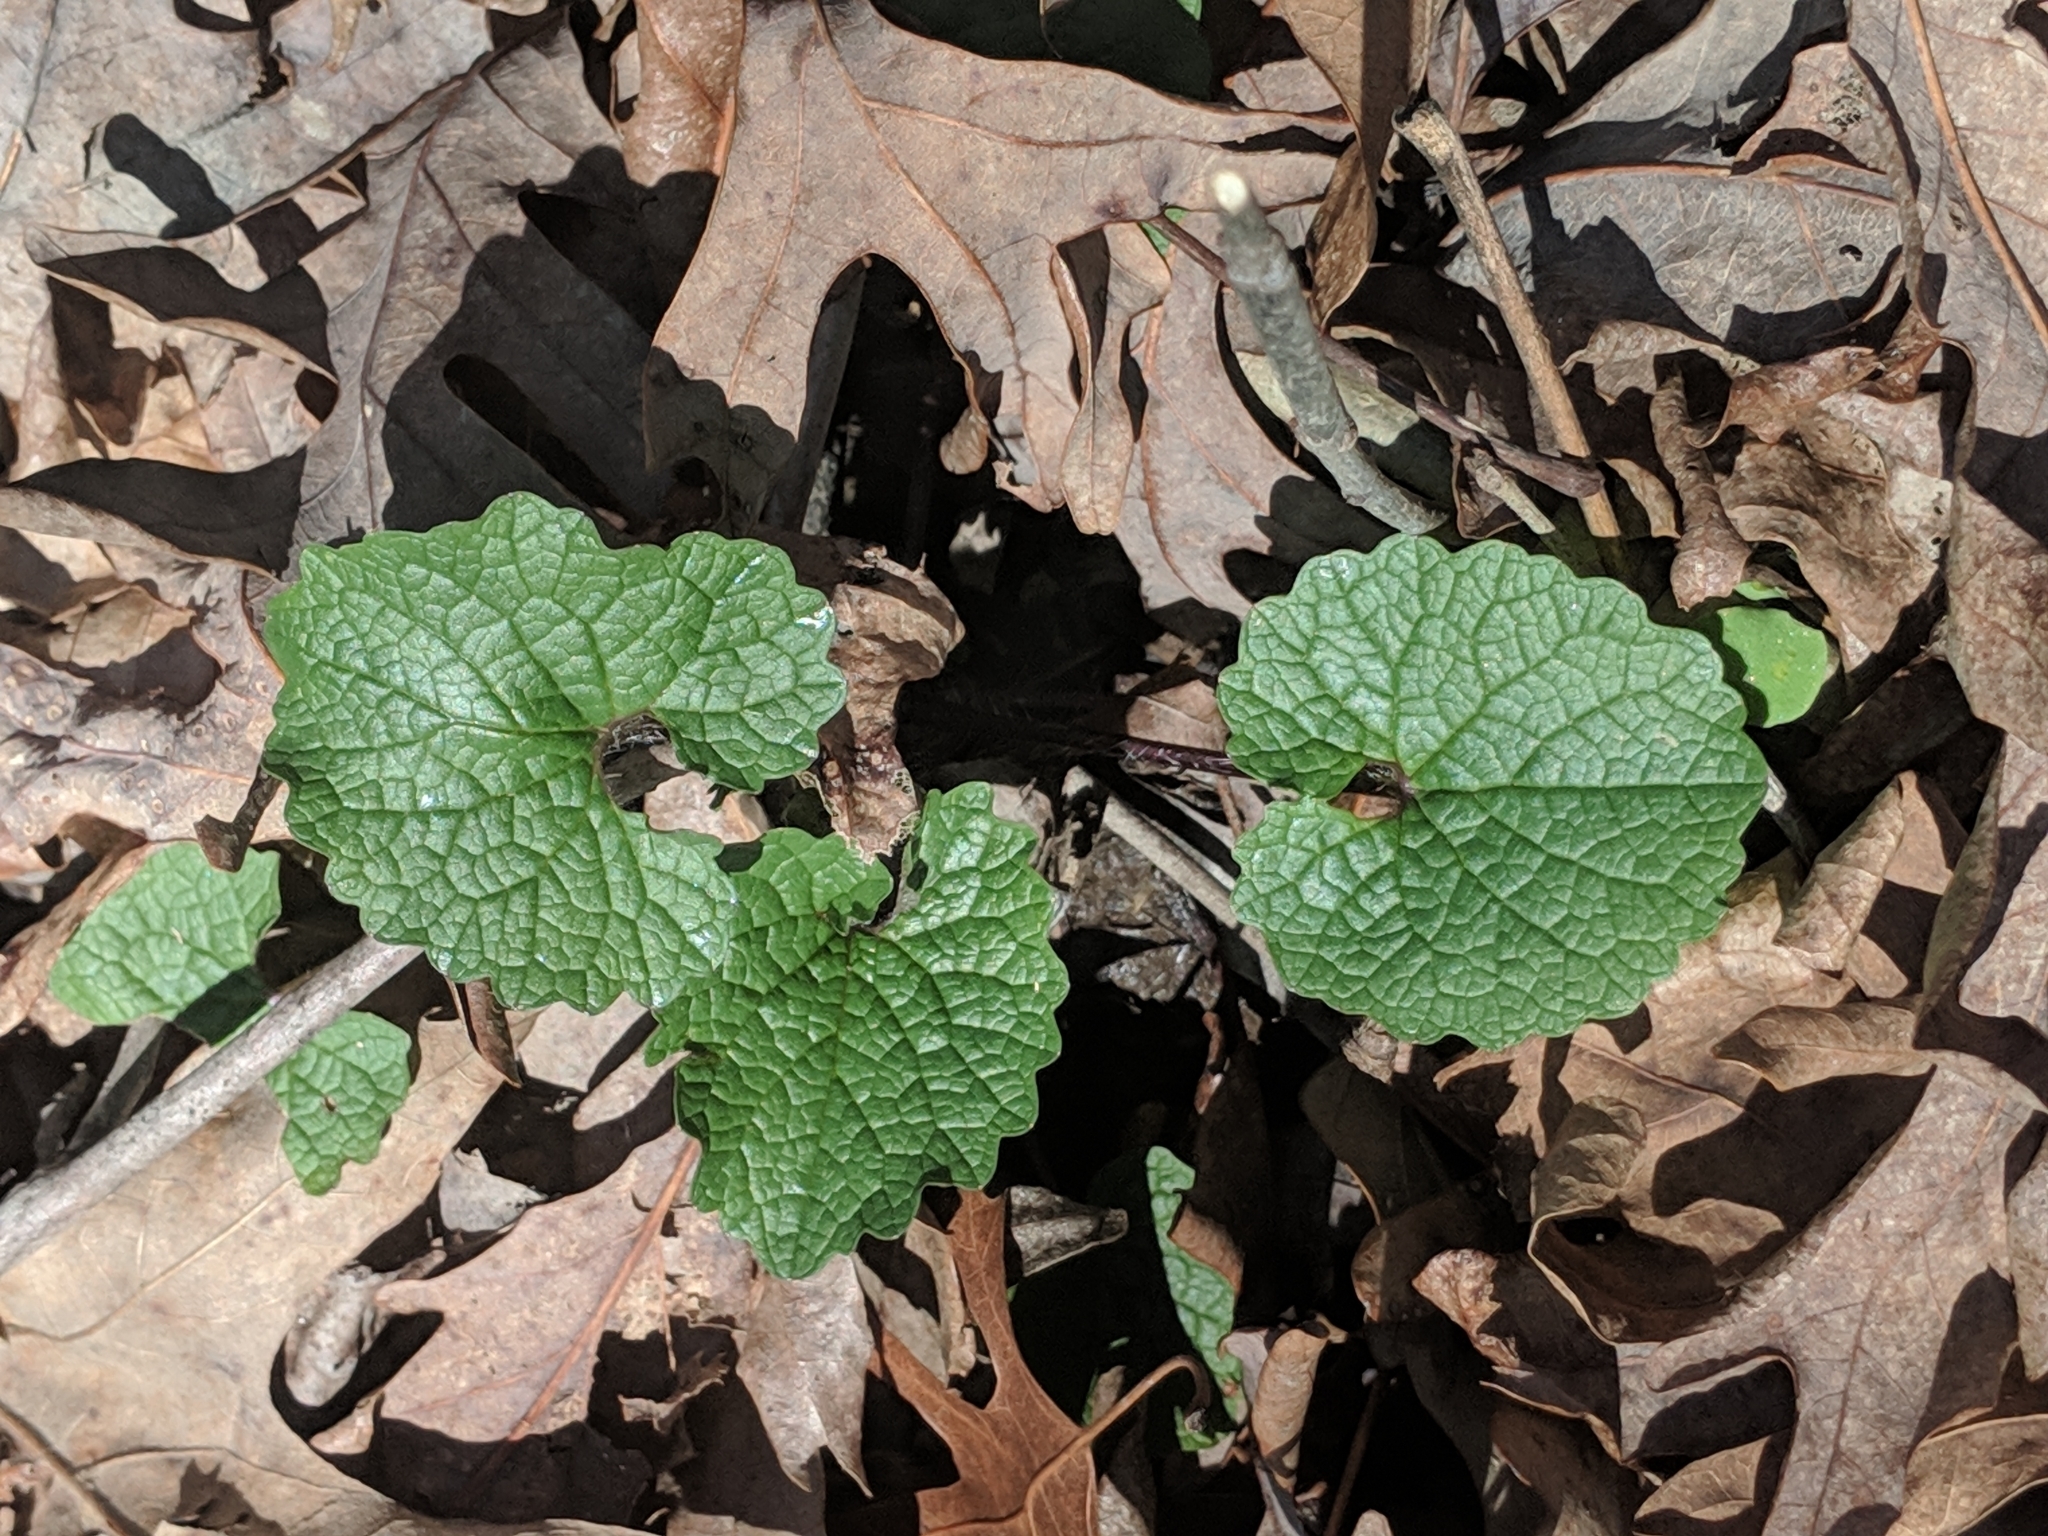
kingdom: Plantae
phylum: Tracheophyta
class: Magnoliopsida
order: Brassicales
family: Brassicaceae
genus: Alliaria
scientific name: Alliaria petiolata
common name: Garlic mustard
